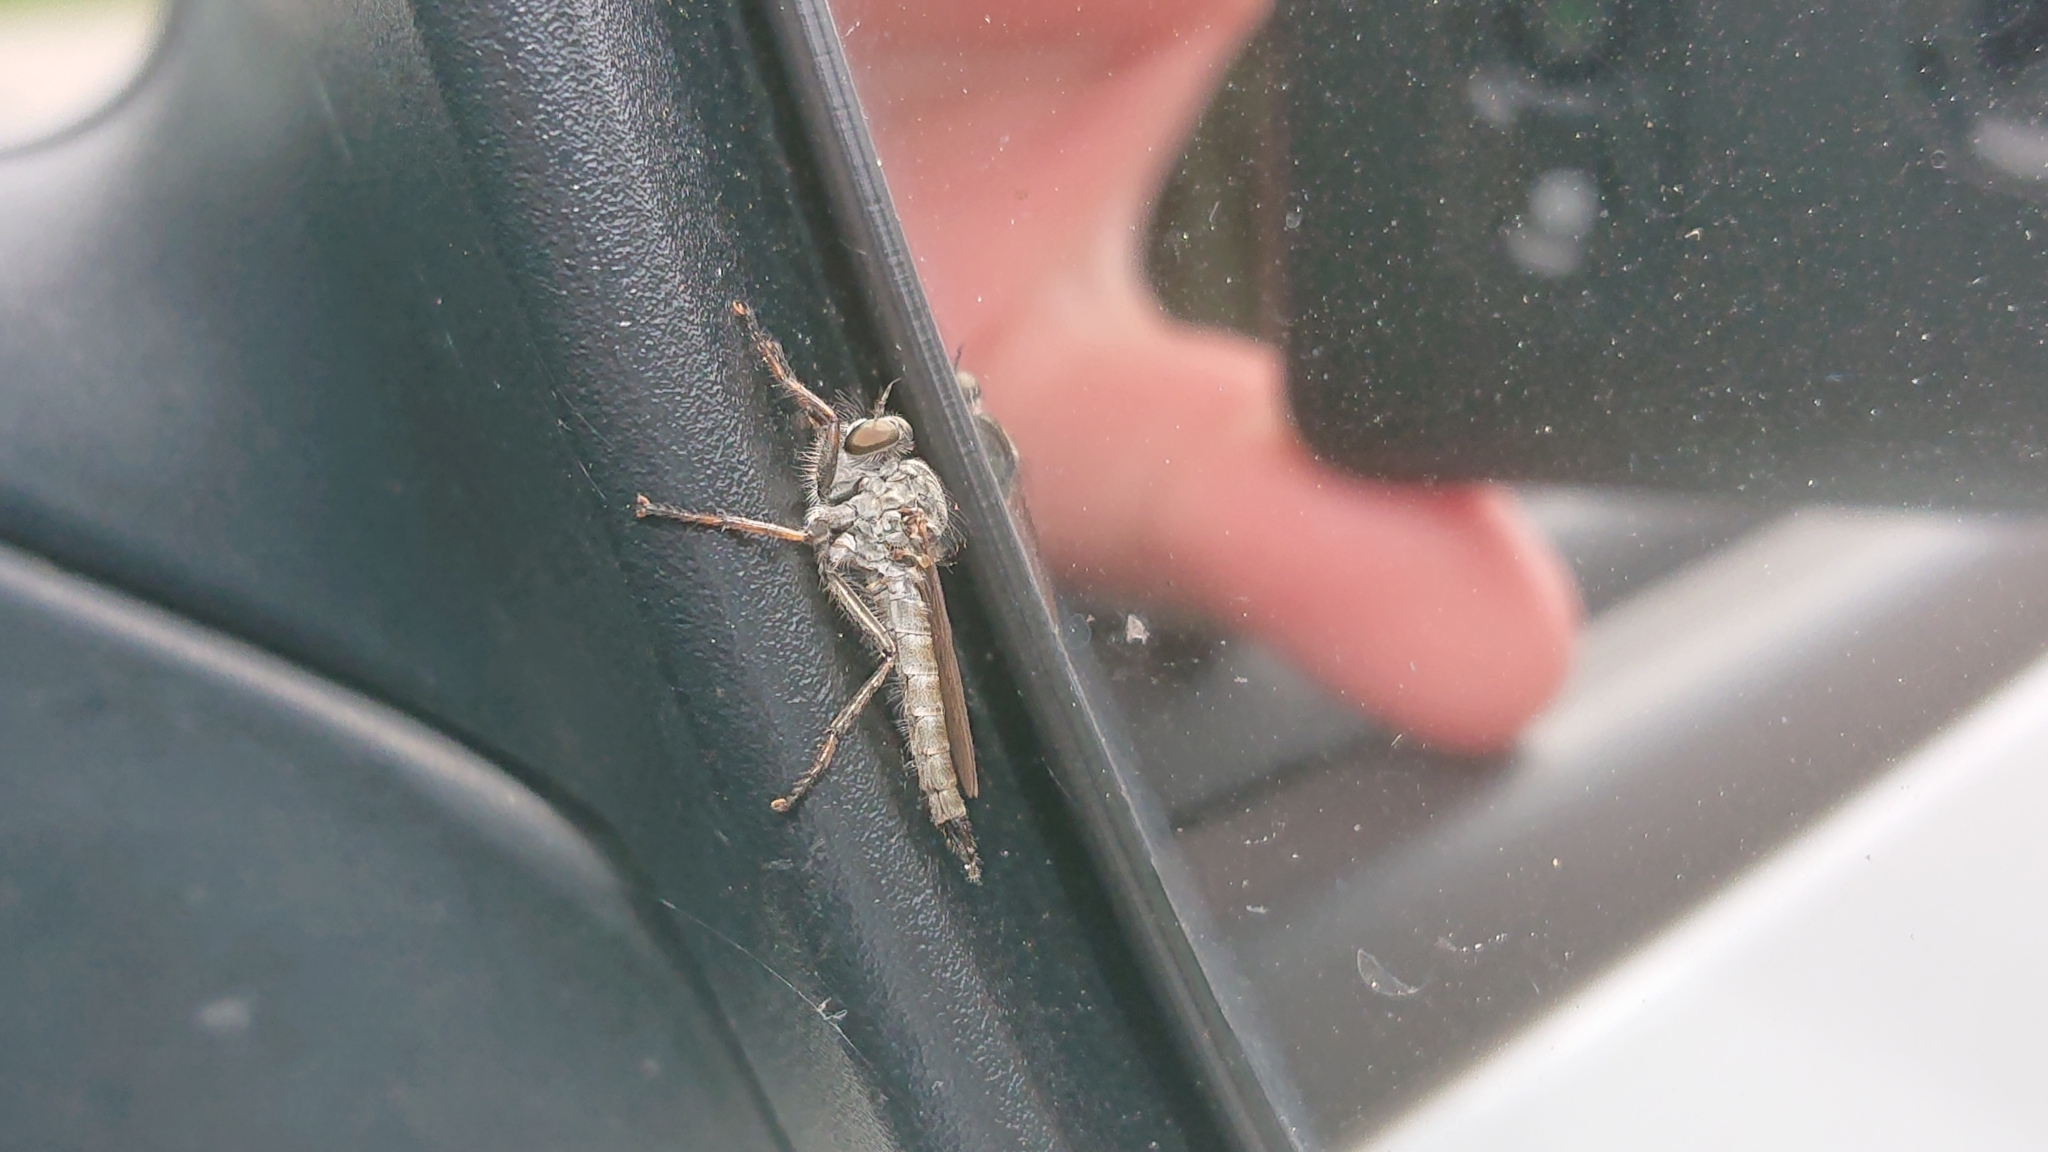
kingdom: Animalia
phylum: Arthropoda
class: Insecta
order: Diptera
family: Asilidae
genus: Machimus
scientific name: Machimus atricapillus
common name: Kite-tailed robberfly
